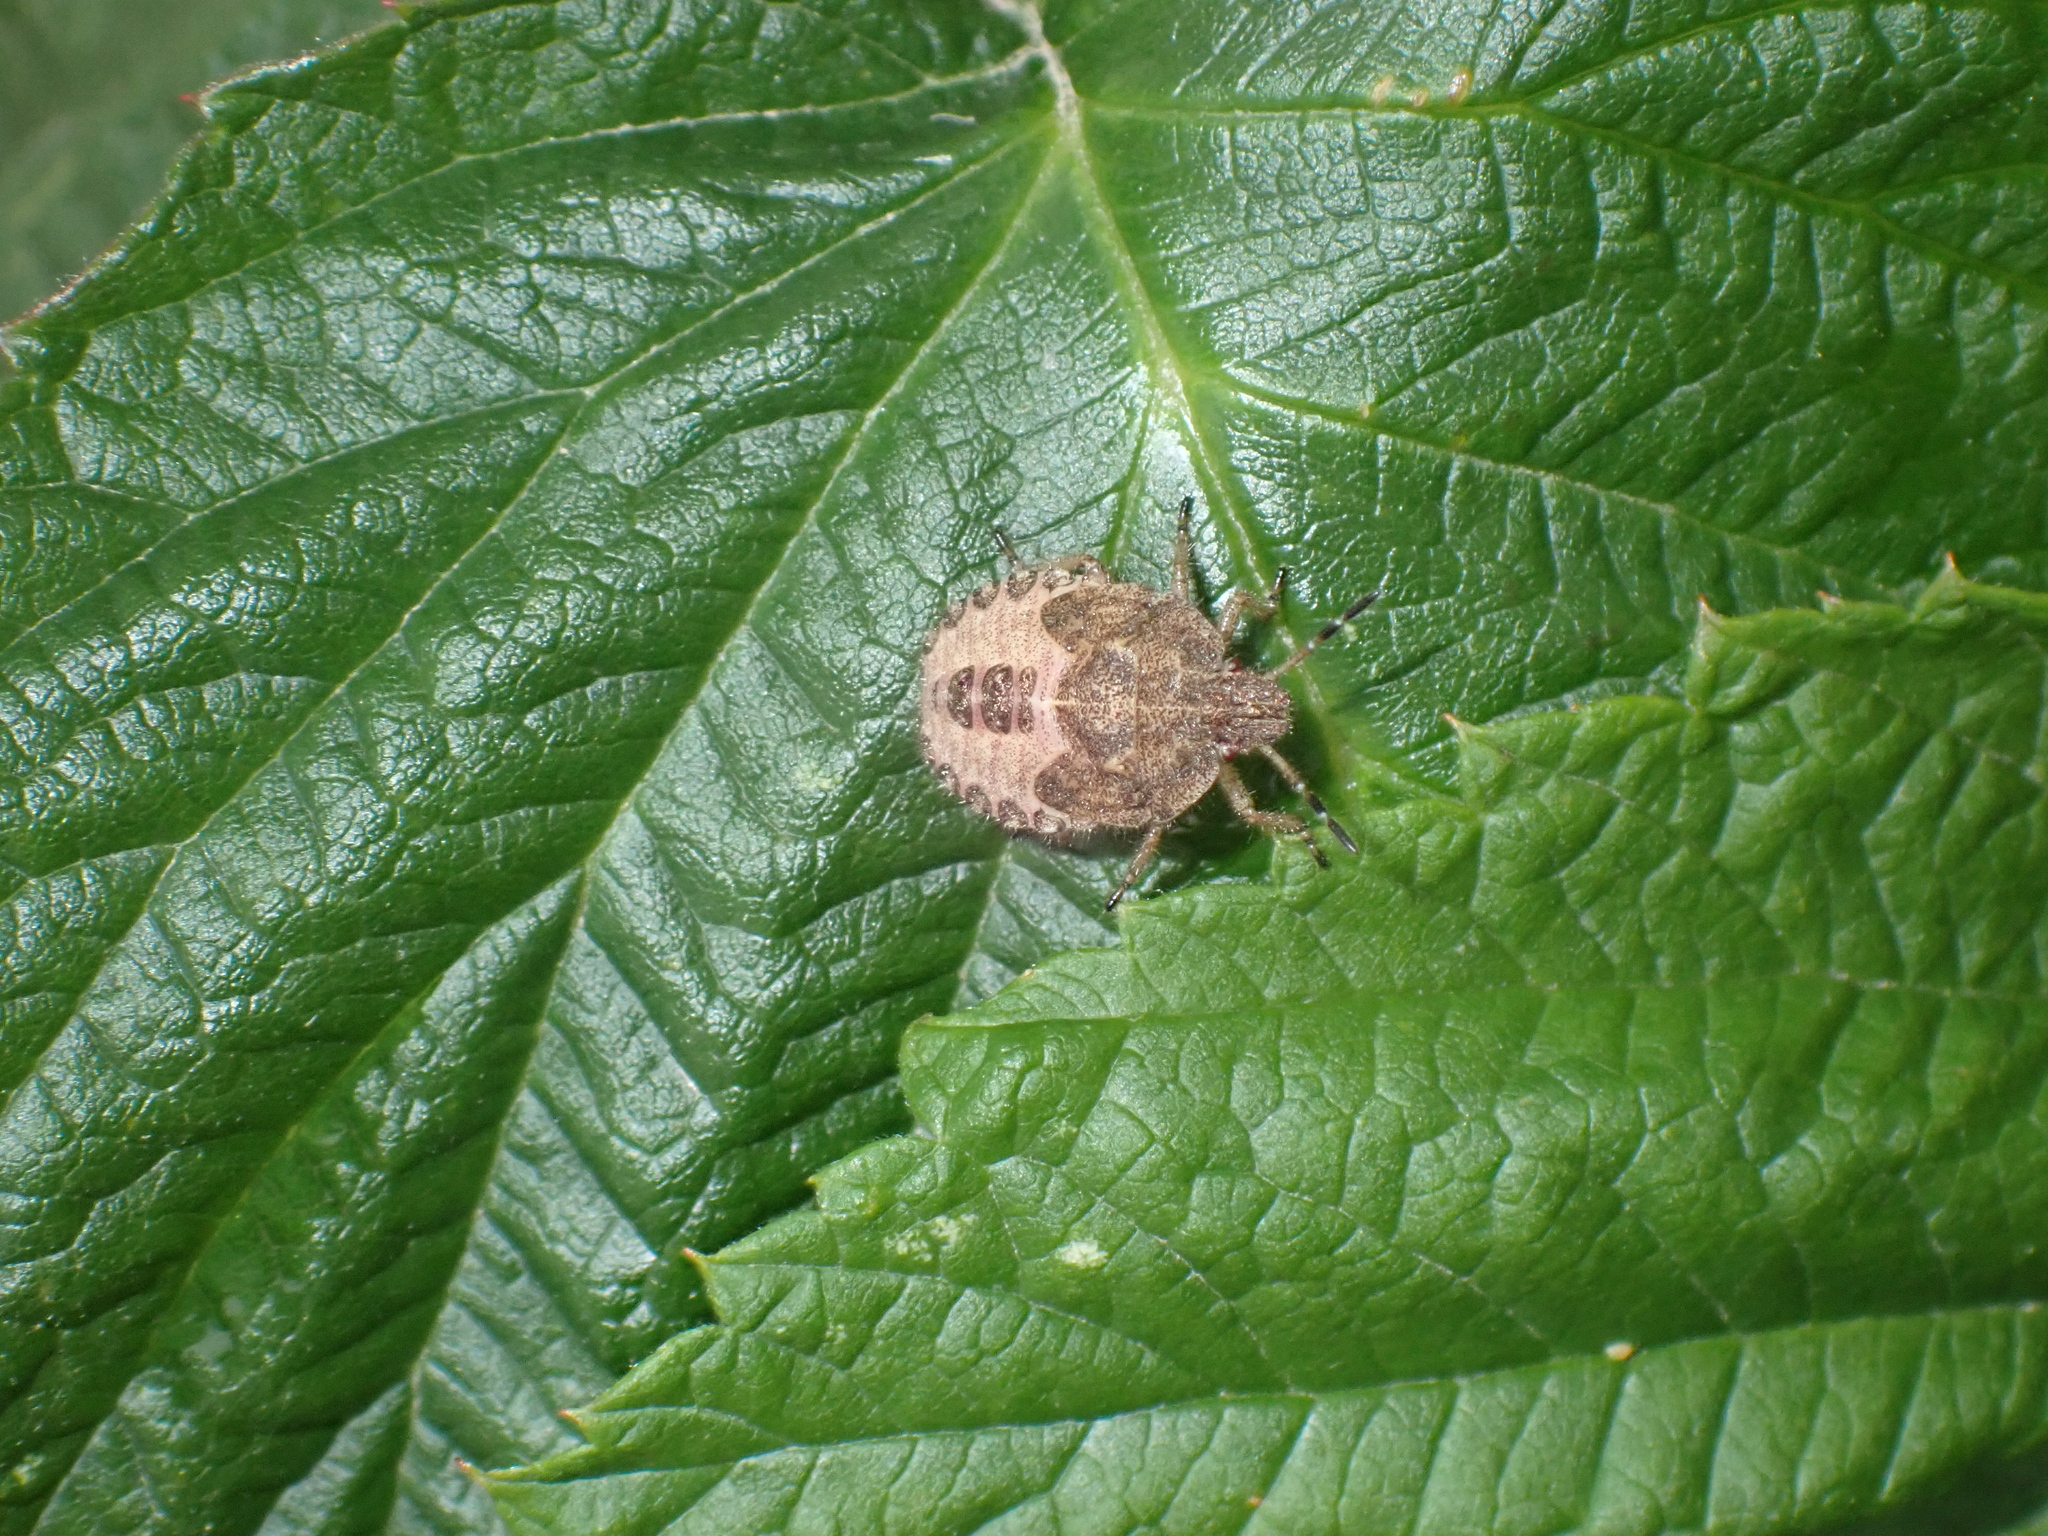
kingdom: Animalia
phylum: Arthropoda
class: Insecta
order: Hemiptera
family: Pentatomidae
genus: Dolycoris
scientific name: Dolycoris baccarum
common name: Sloe bug
